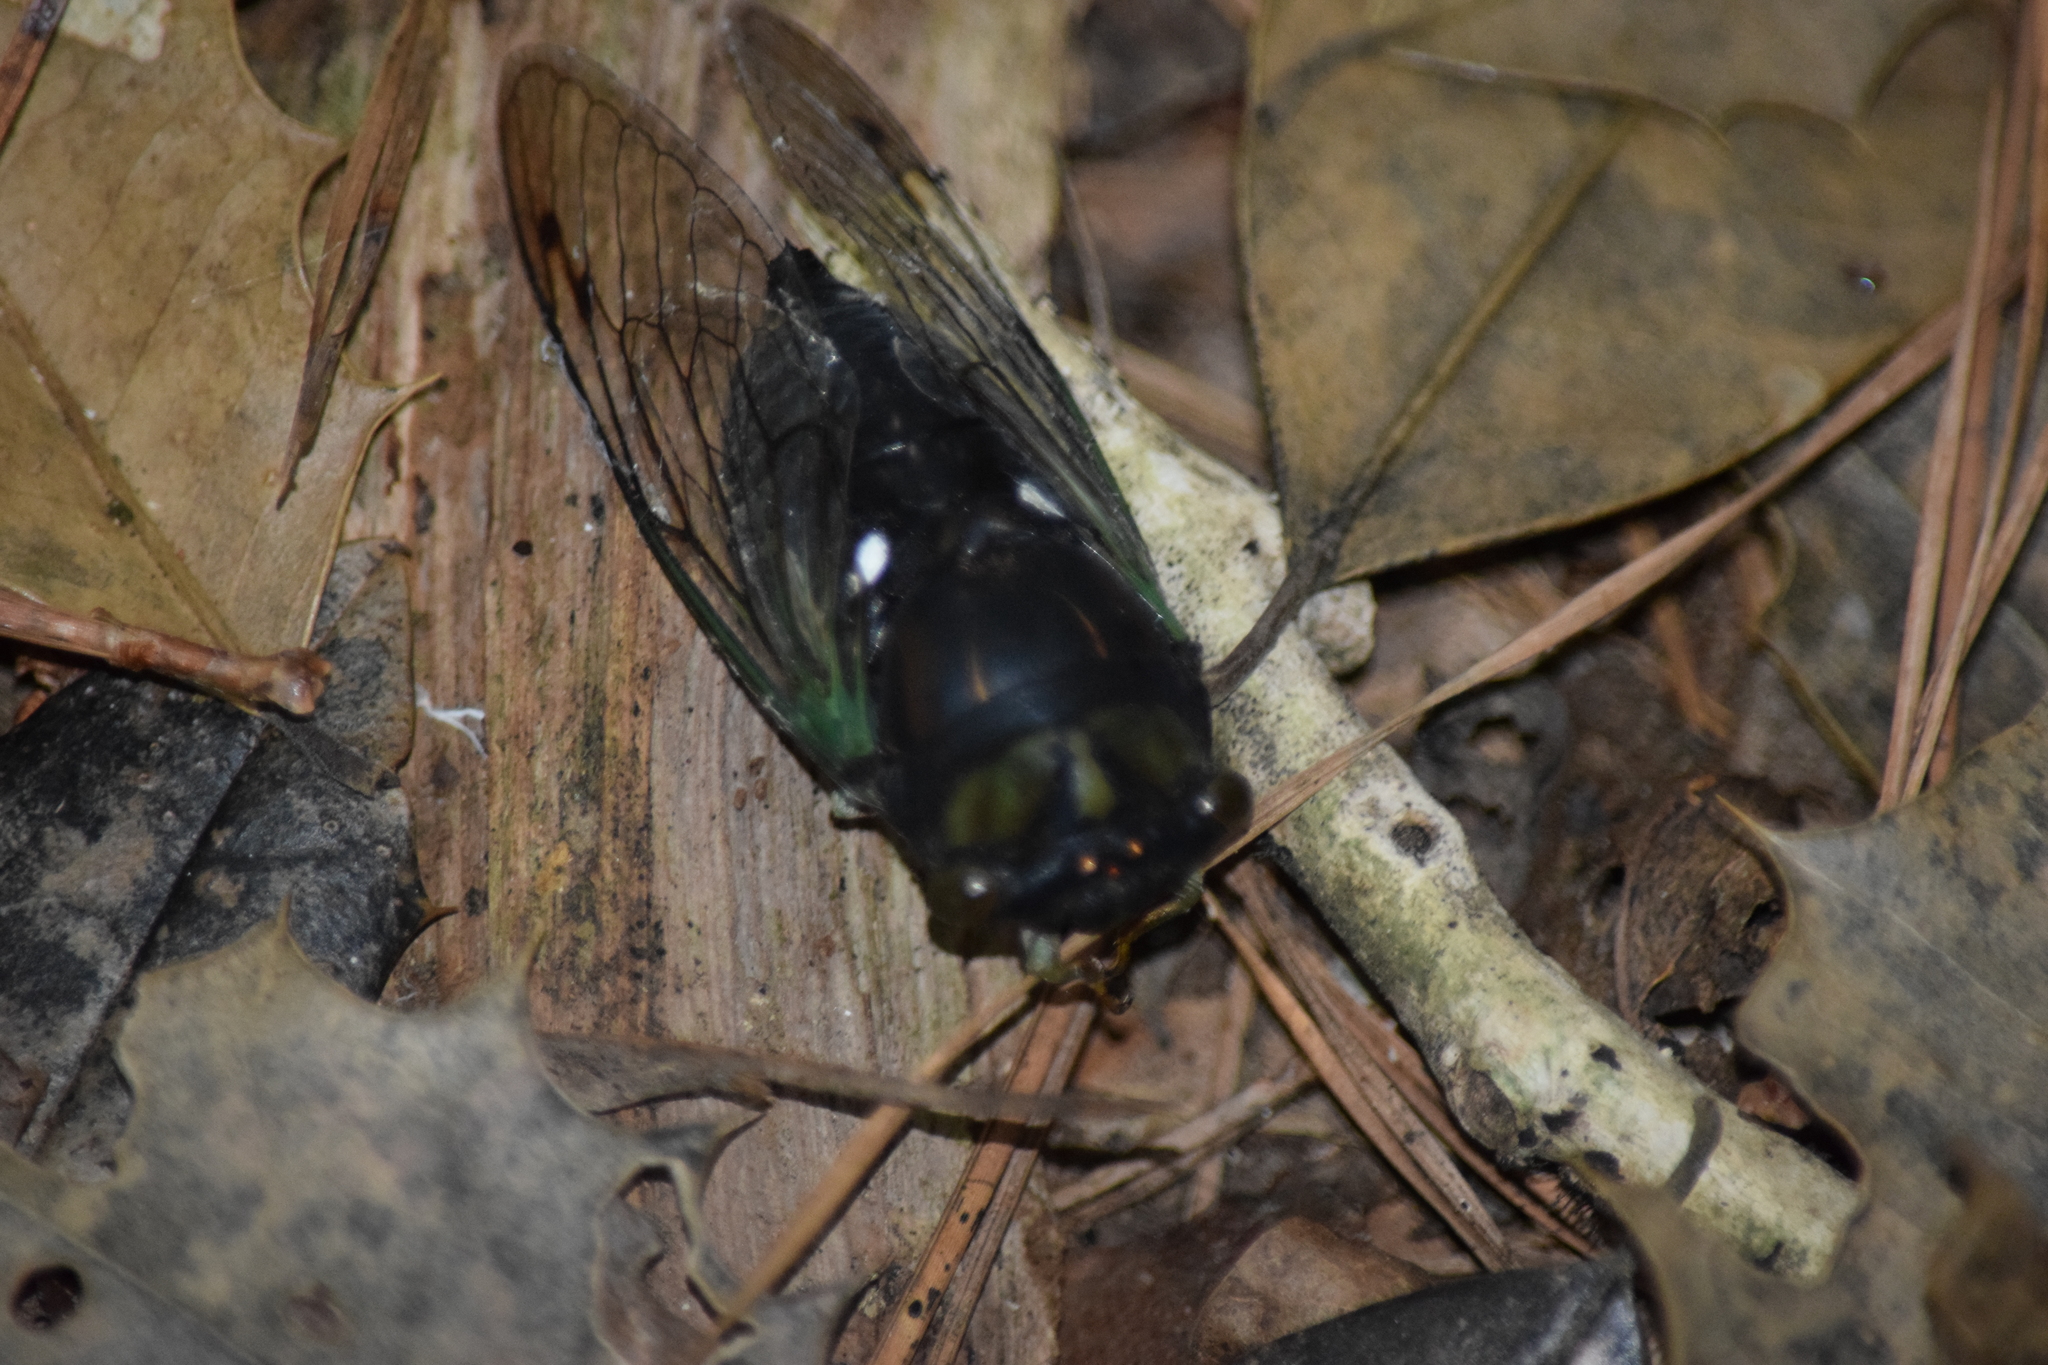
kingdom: Animalia
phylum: Arthropoda
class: Insecta
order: Hemiptera
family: Cicadidae
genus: Neotibicen
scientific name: Neotibicen tibicen
